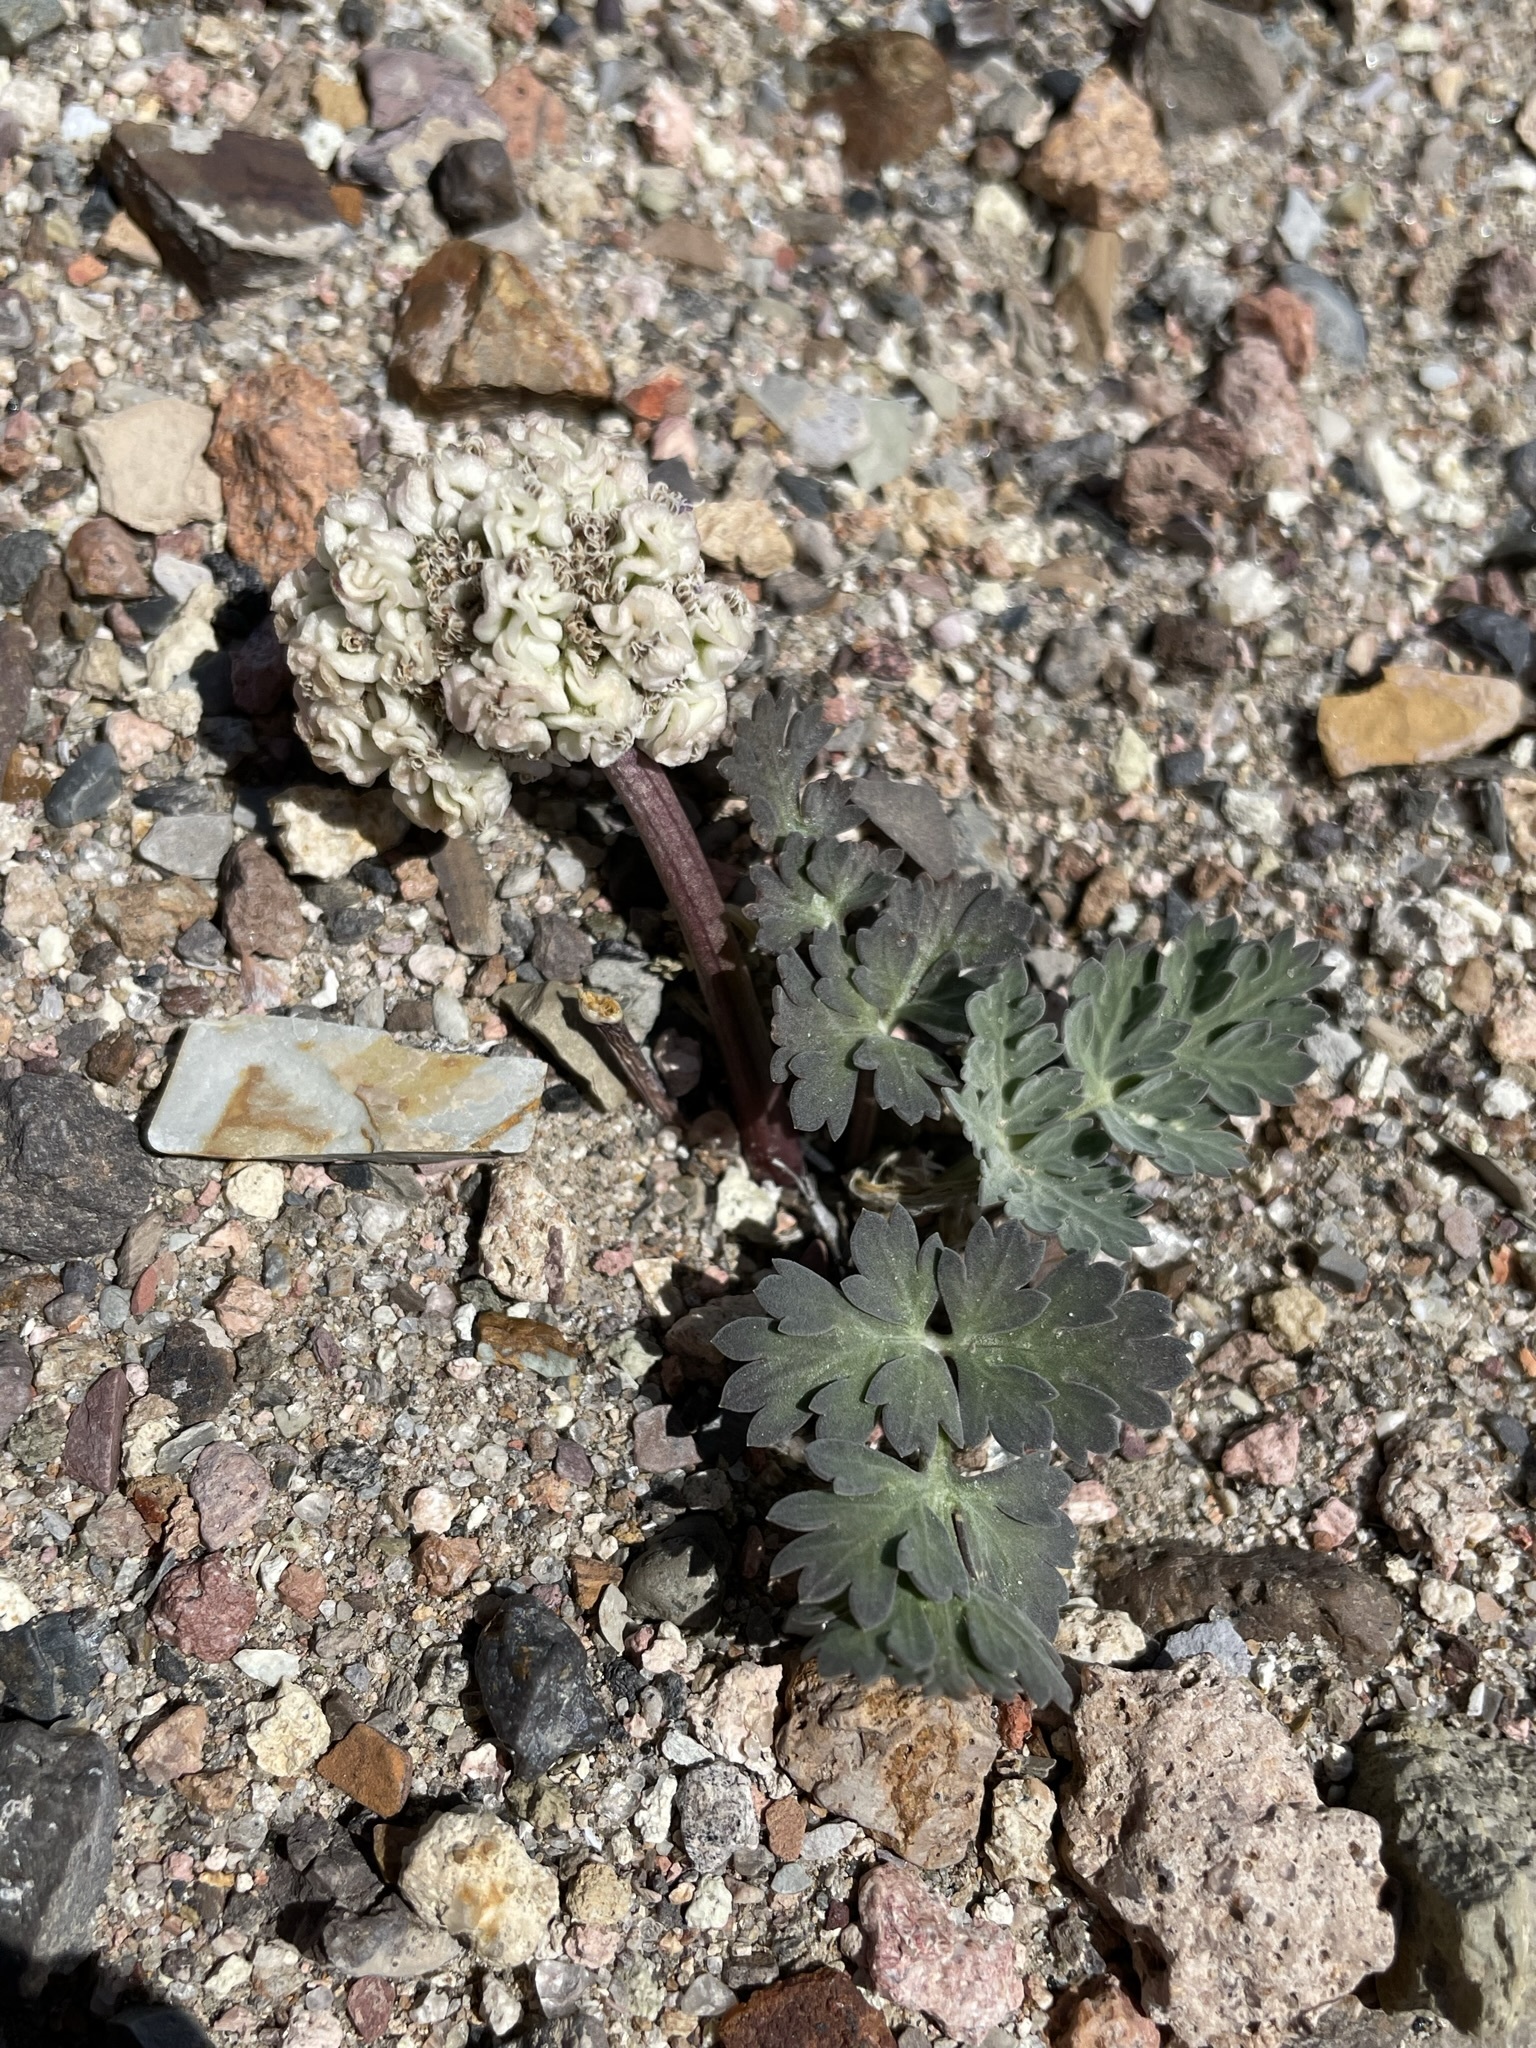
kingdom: Plantae
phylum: Tracheophyta
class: Magnoliopsida
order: Apiales
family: Apiaceae
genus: Cymopterus
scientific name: Cymopterus globosus
